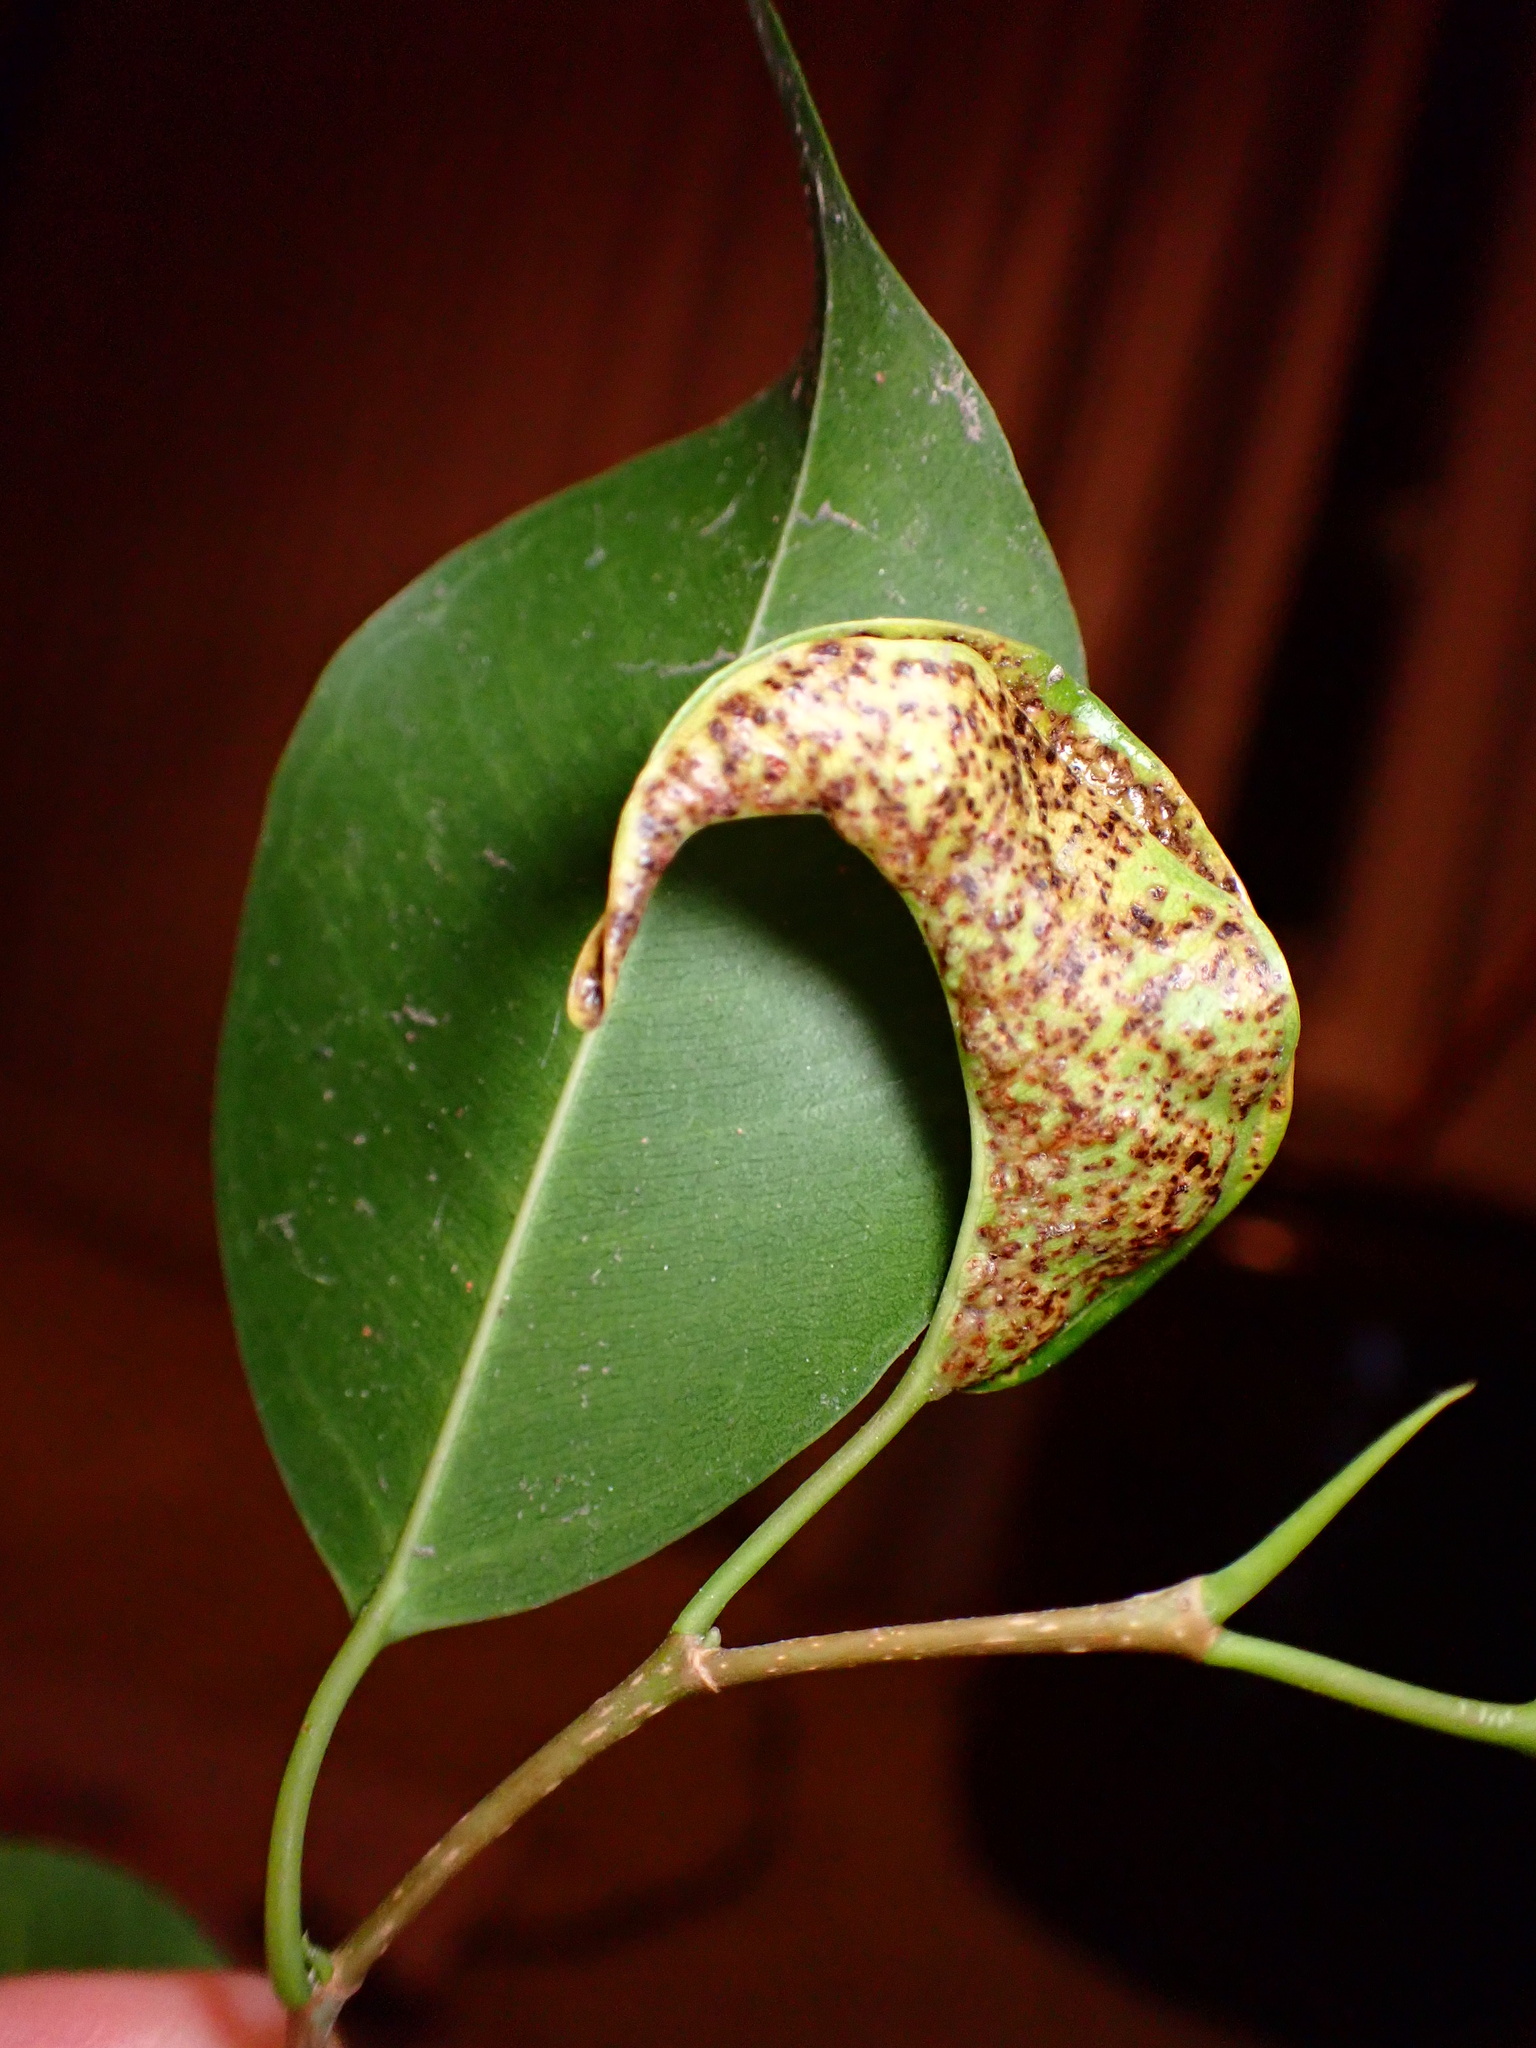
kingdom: Animalia
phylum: Arthropoda
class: Insecta
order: Thysanoptera
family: Phlaeothripidae
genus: Gynaikothrips
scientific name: Gynaikothrips uzeli
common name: Leaf-gall thrips
